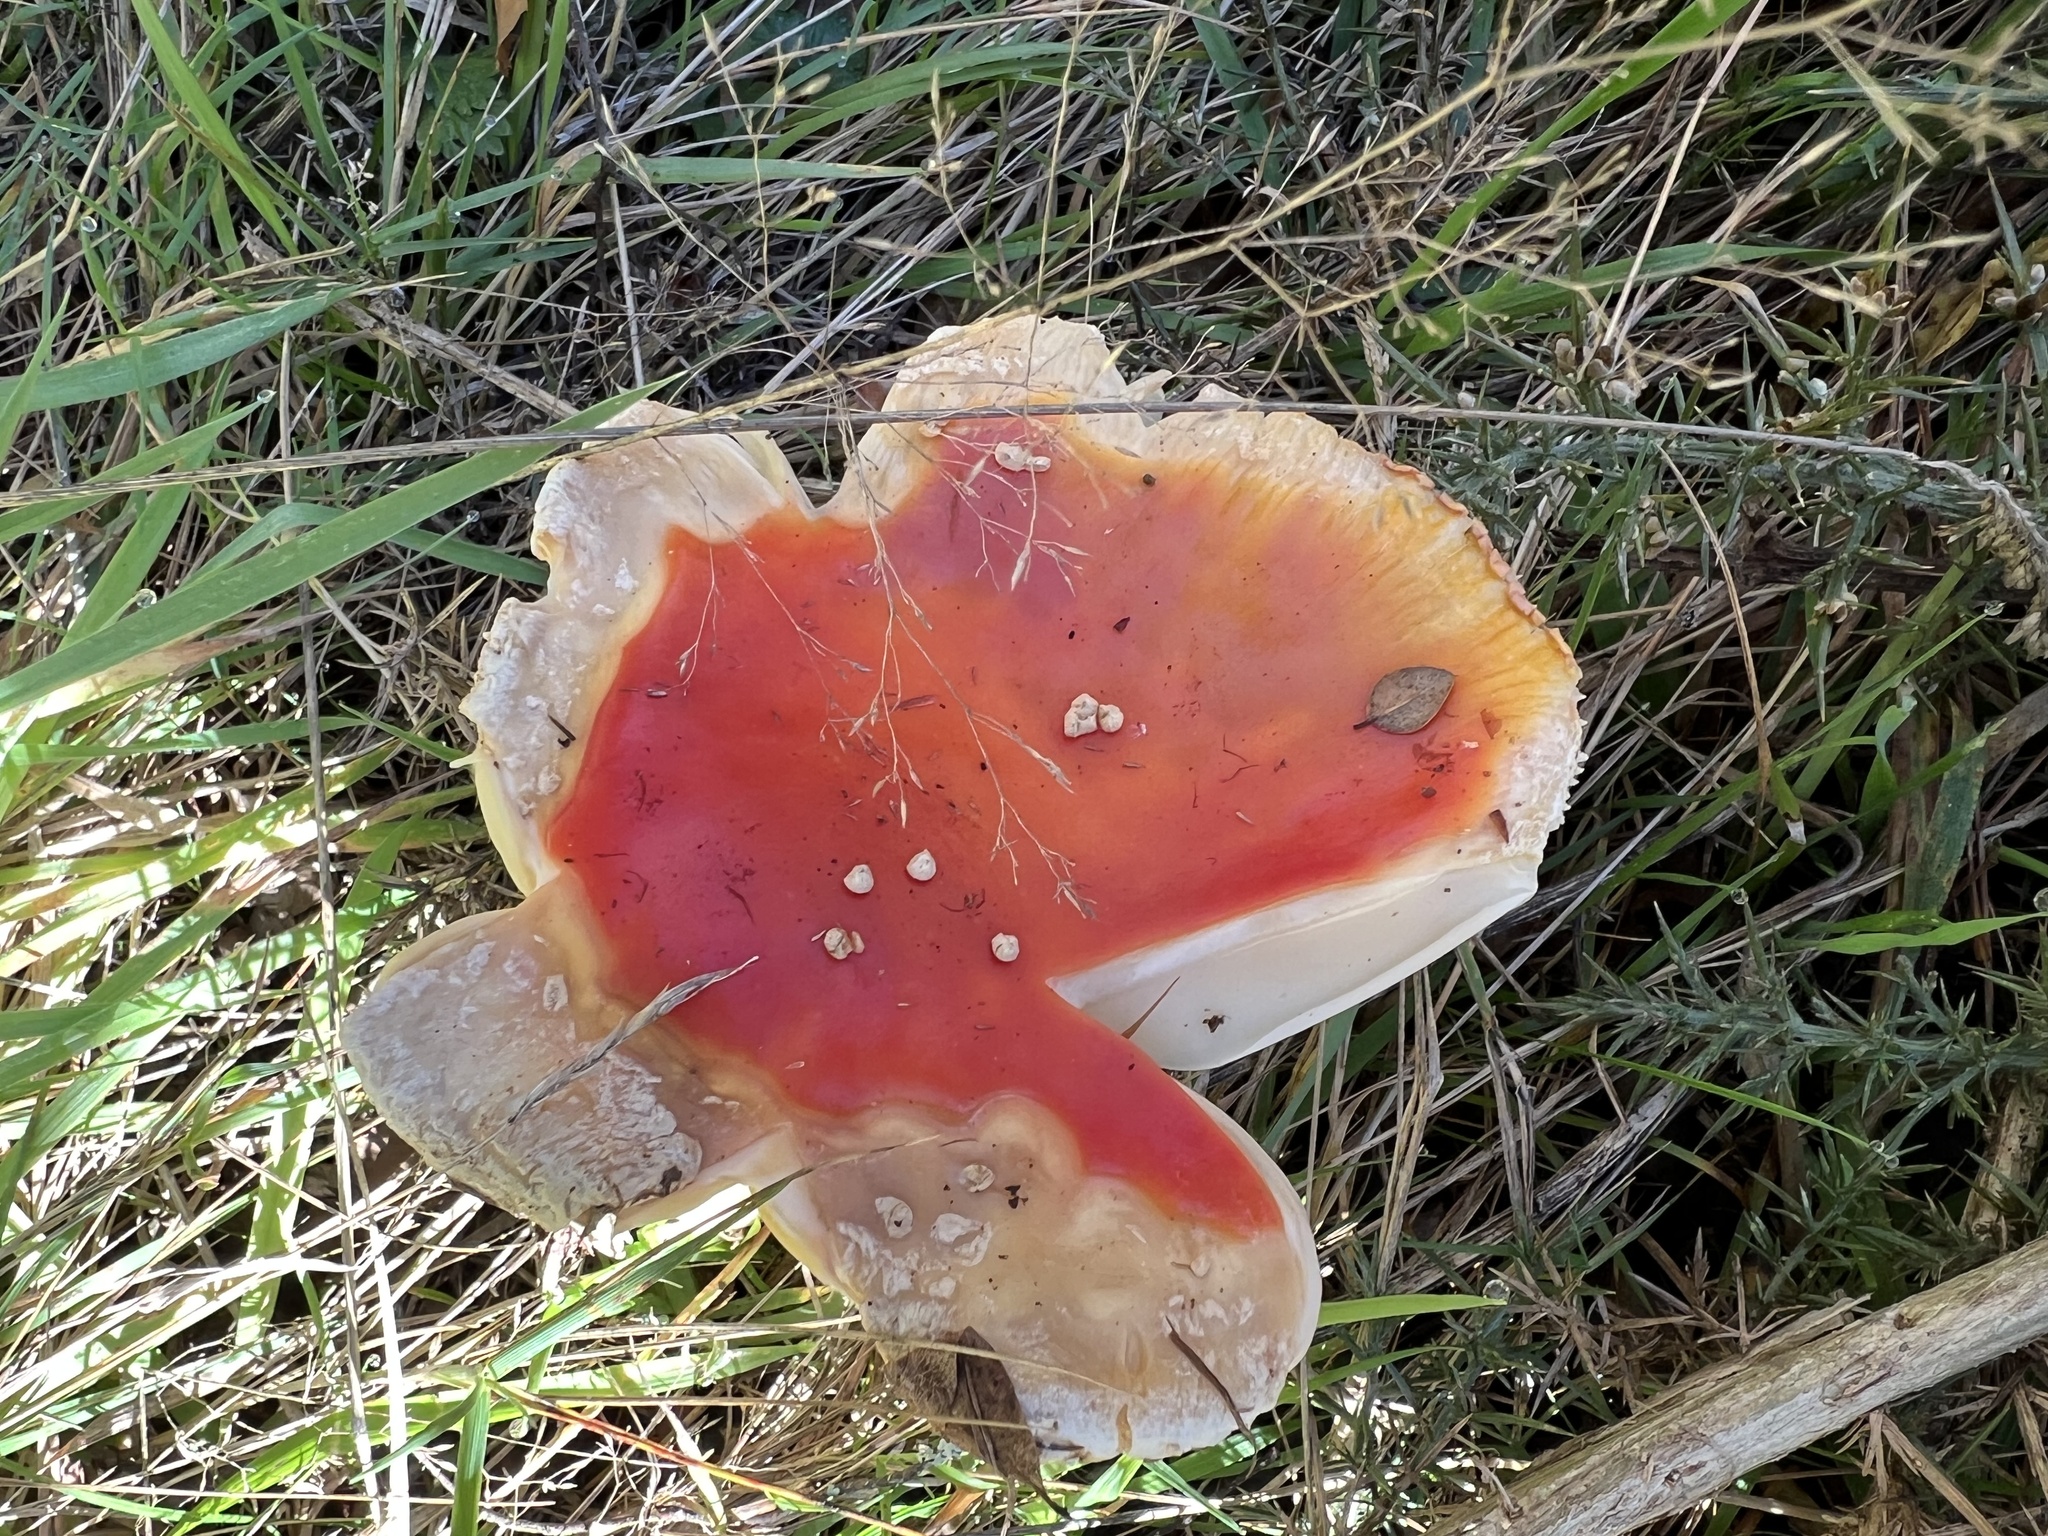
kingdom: Fungi
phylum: Basidiomycota
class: Agaricomycetes
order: Agaricales
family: Amanitaceae
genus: Amanita
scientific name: Amanita muscaria
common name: Fly agaric
